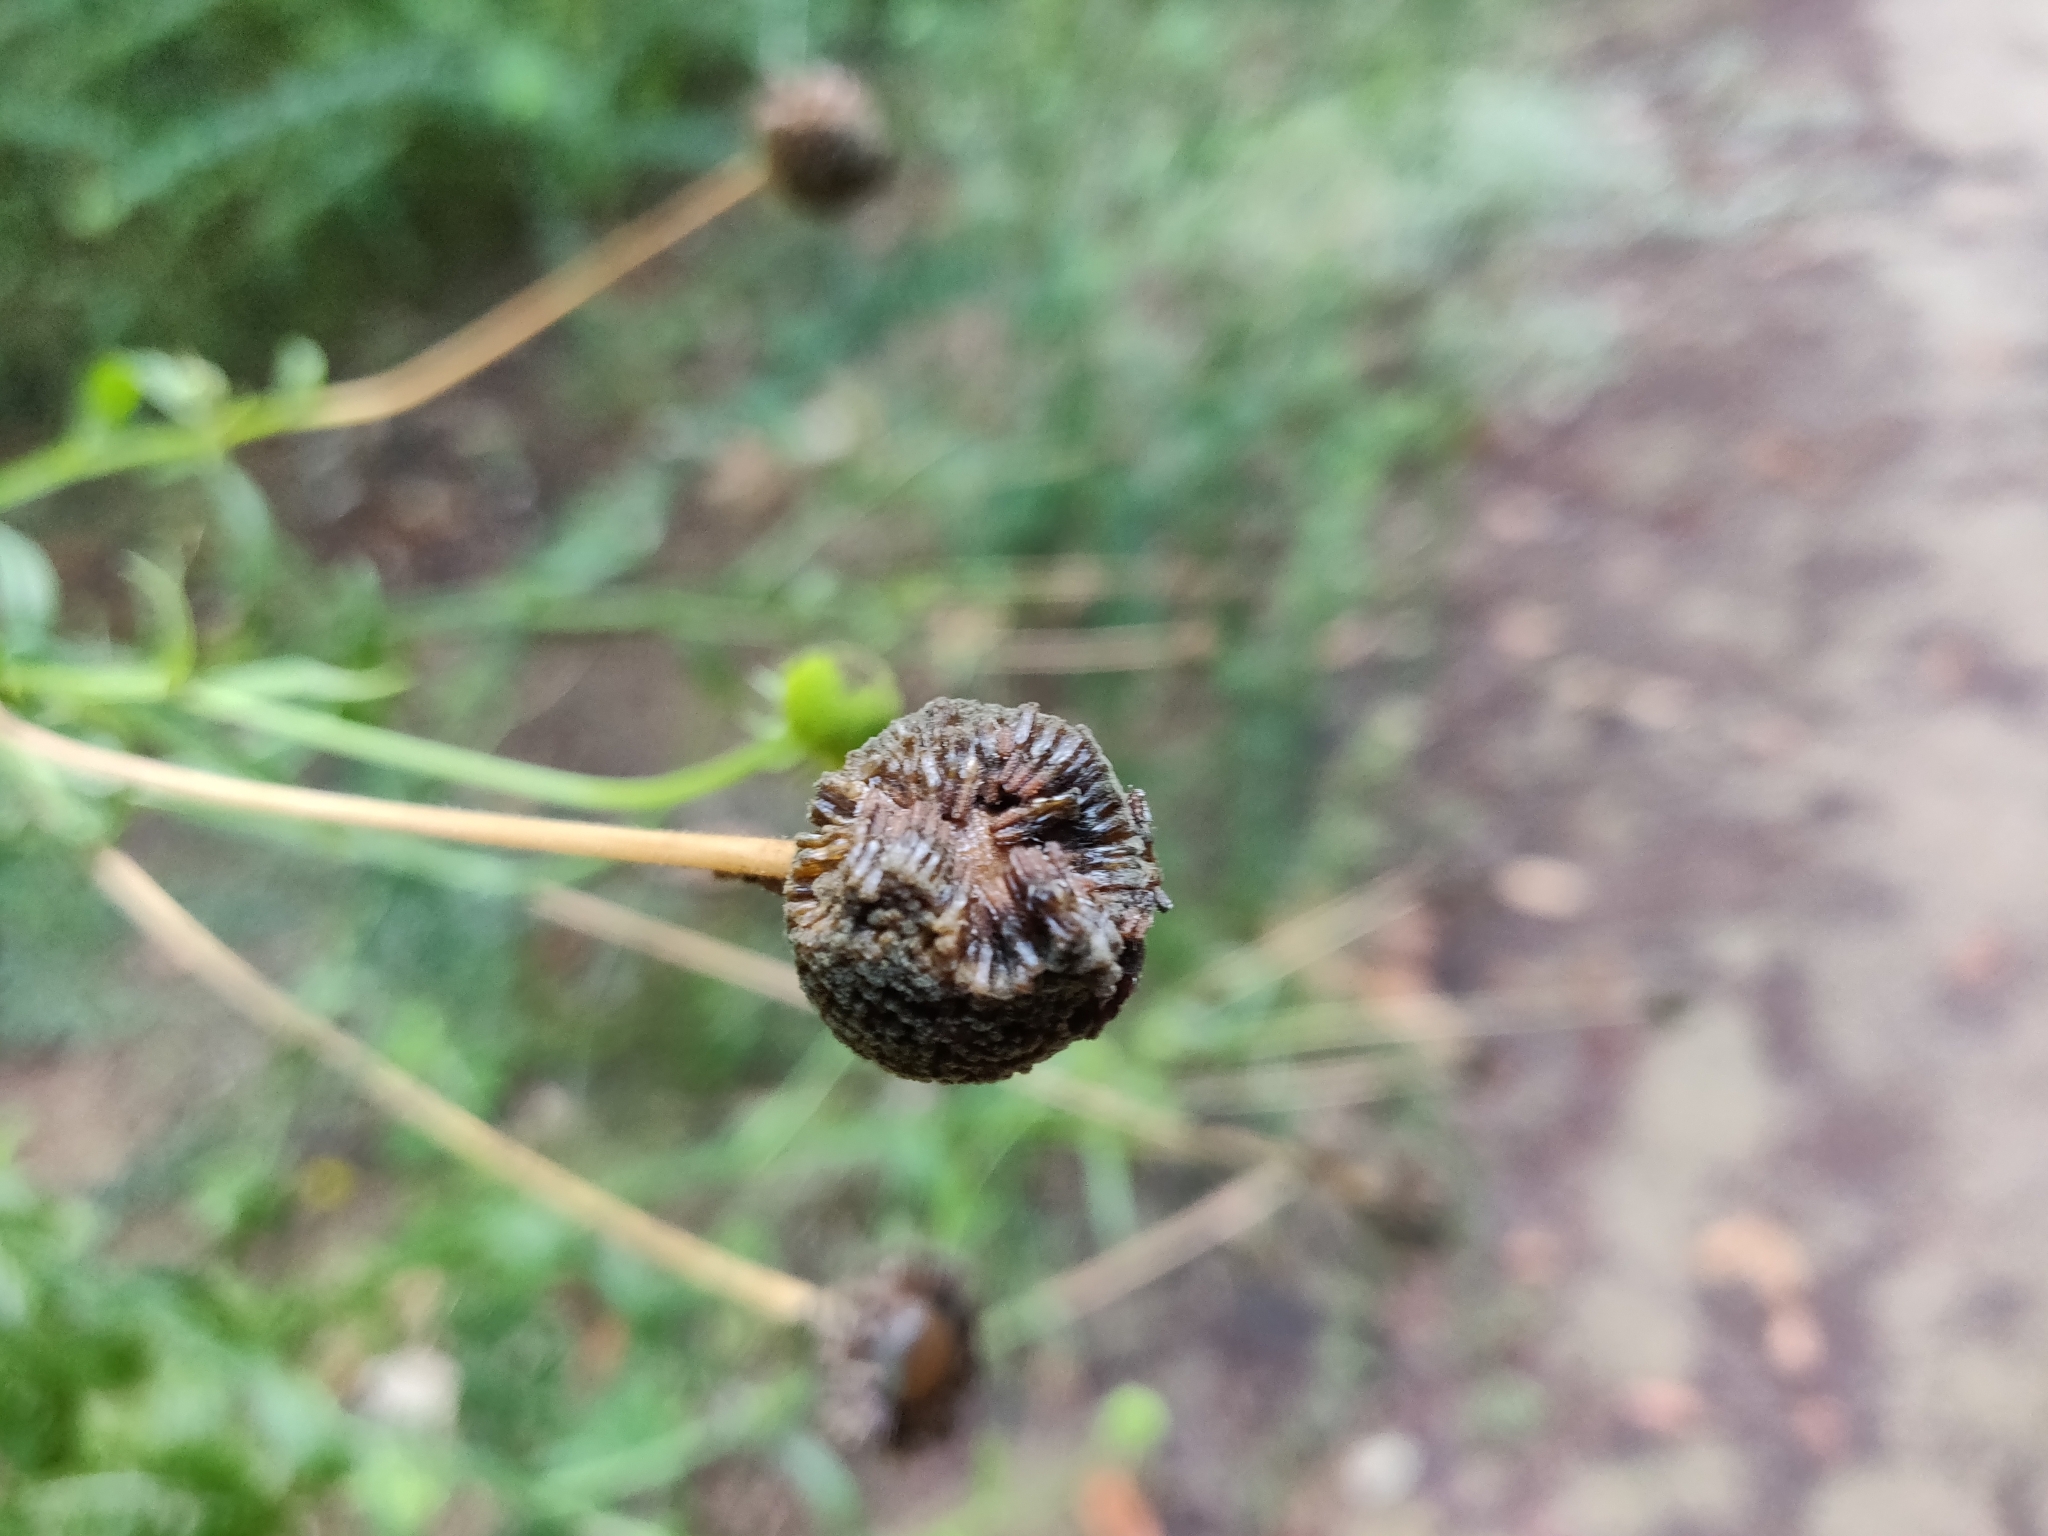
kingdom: Plantae
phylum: Tracheophyta
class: Magnoliopsida
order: Asterales
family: Asteraceae
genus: Helenium
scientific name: Helenium puberulum
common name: Sneezewort
